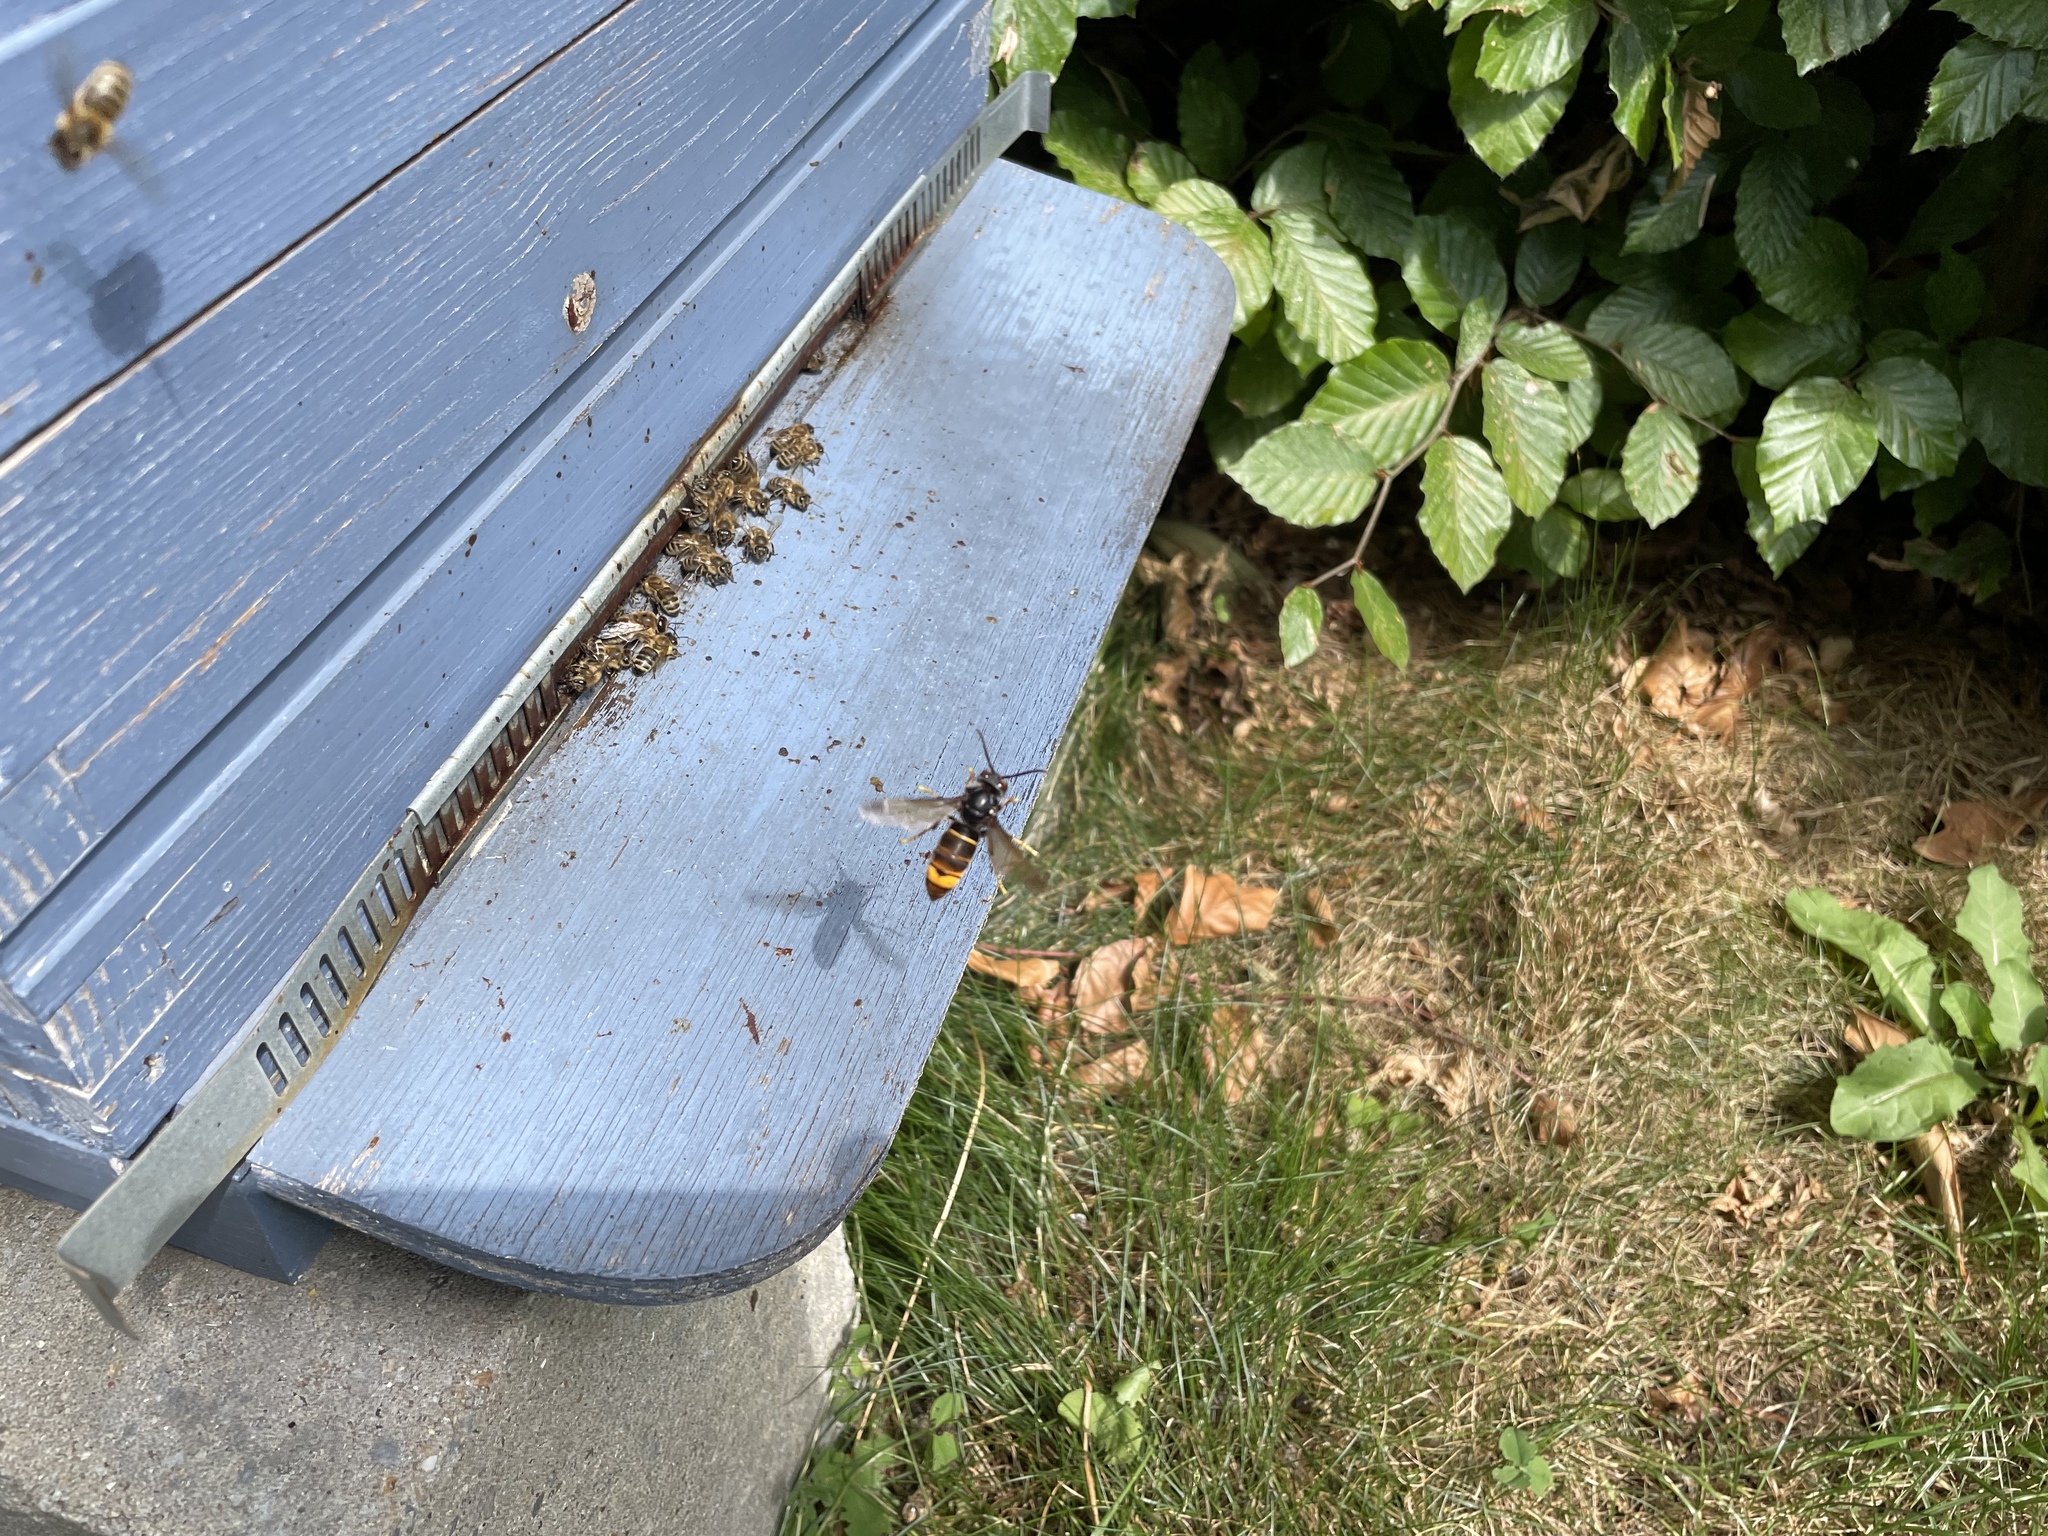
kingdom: Animalia
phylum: Arthropoda
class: Insecta
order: Hymenoptera
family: Vespidae
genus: Vespa
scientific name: Vespa velutina
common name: Asian hornet
